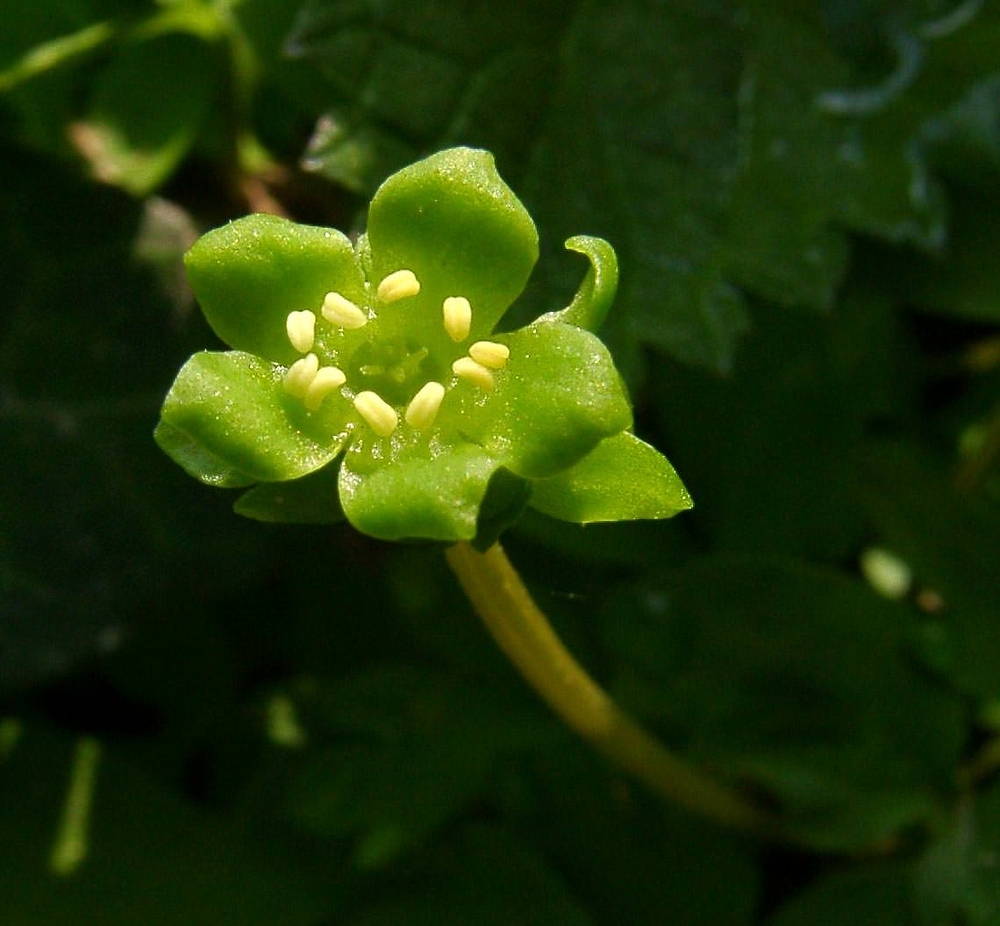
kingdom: Plantae
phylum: Tracheophyta
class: Magnoliopsida
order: Dipsacales
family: Viburnaceae
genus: Adoxa
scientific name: Adoxa moschatellina
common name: Moschatel
